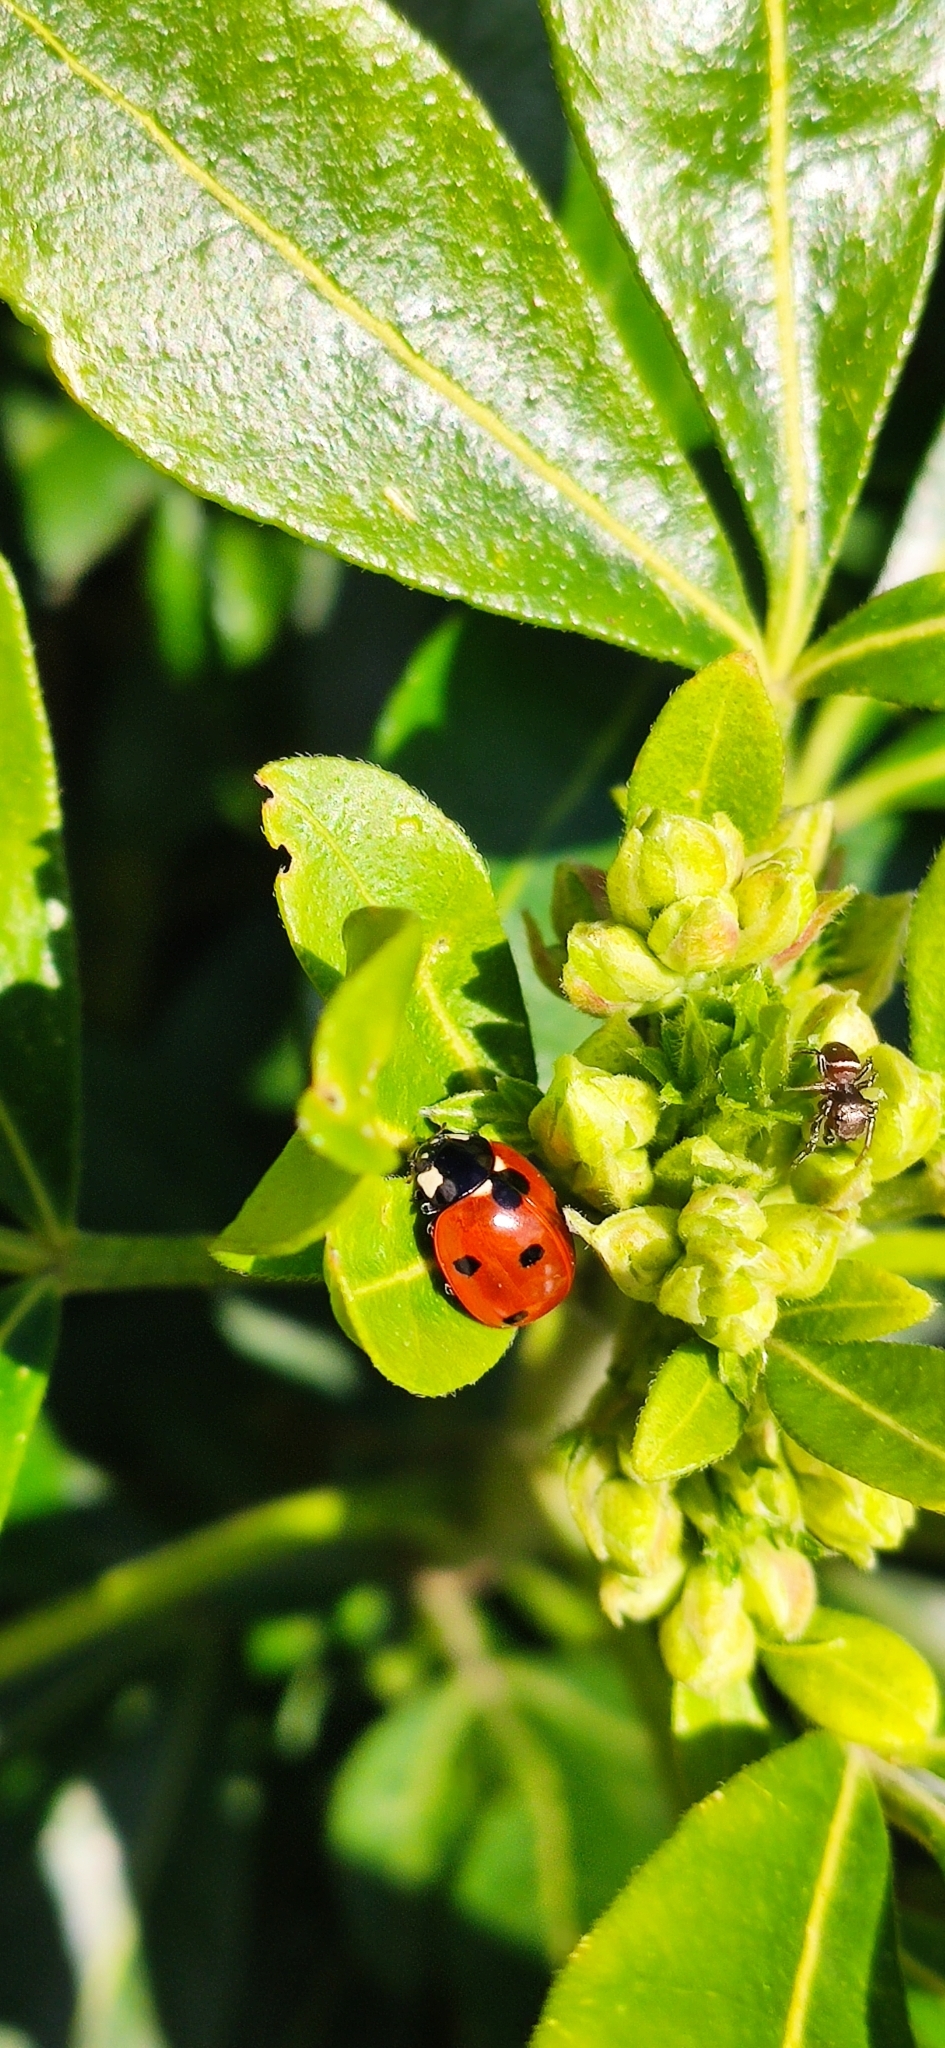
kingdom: Animalia
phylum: Arthropoda
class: Insecta
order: Coleoptera
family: Coccinellidae
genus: Coccinella
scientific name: Coccinella septempunctata
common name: Sevenspotted lady beetle
